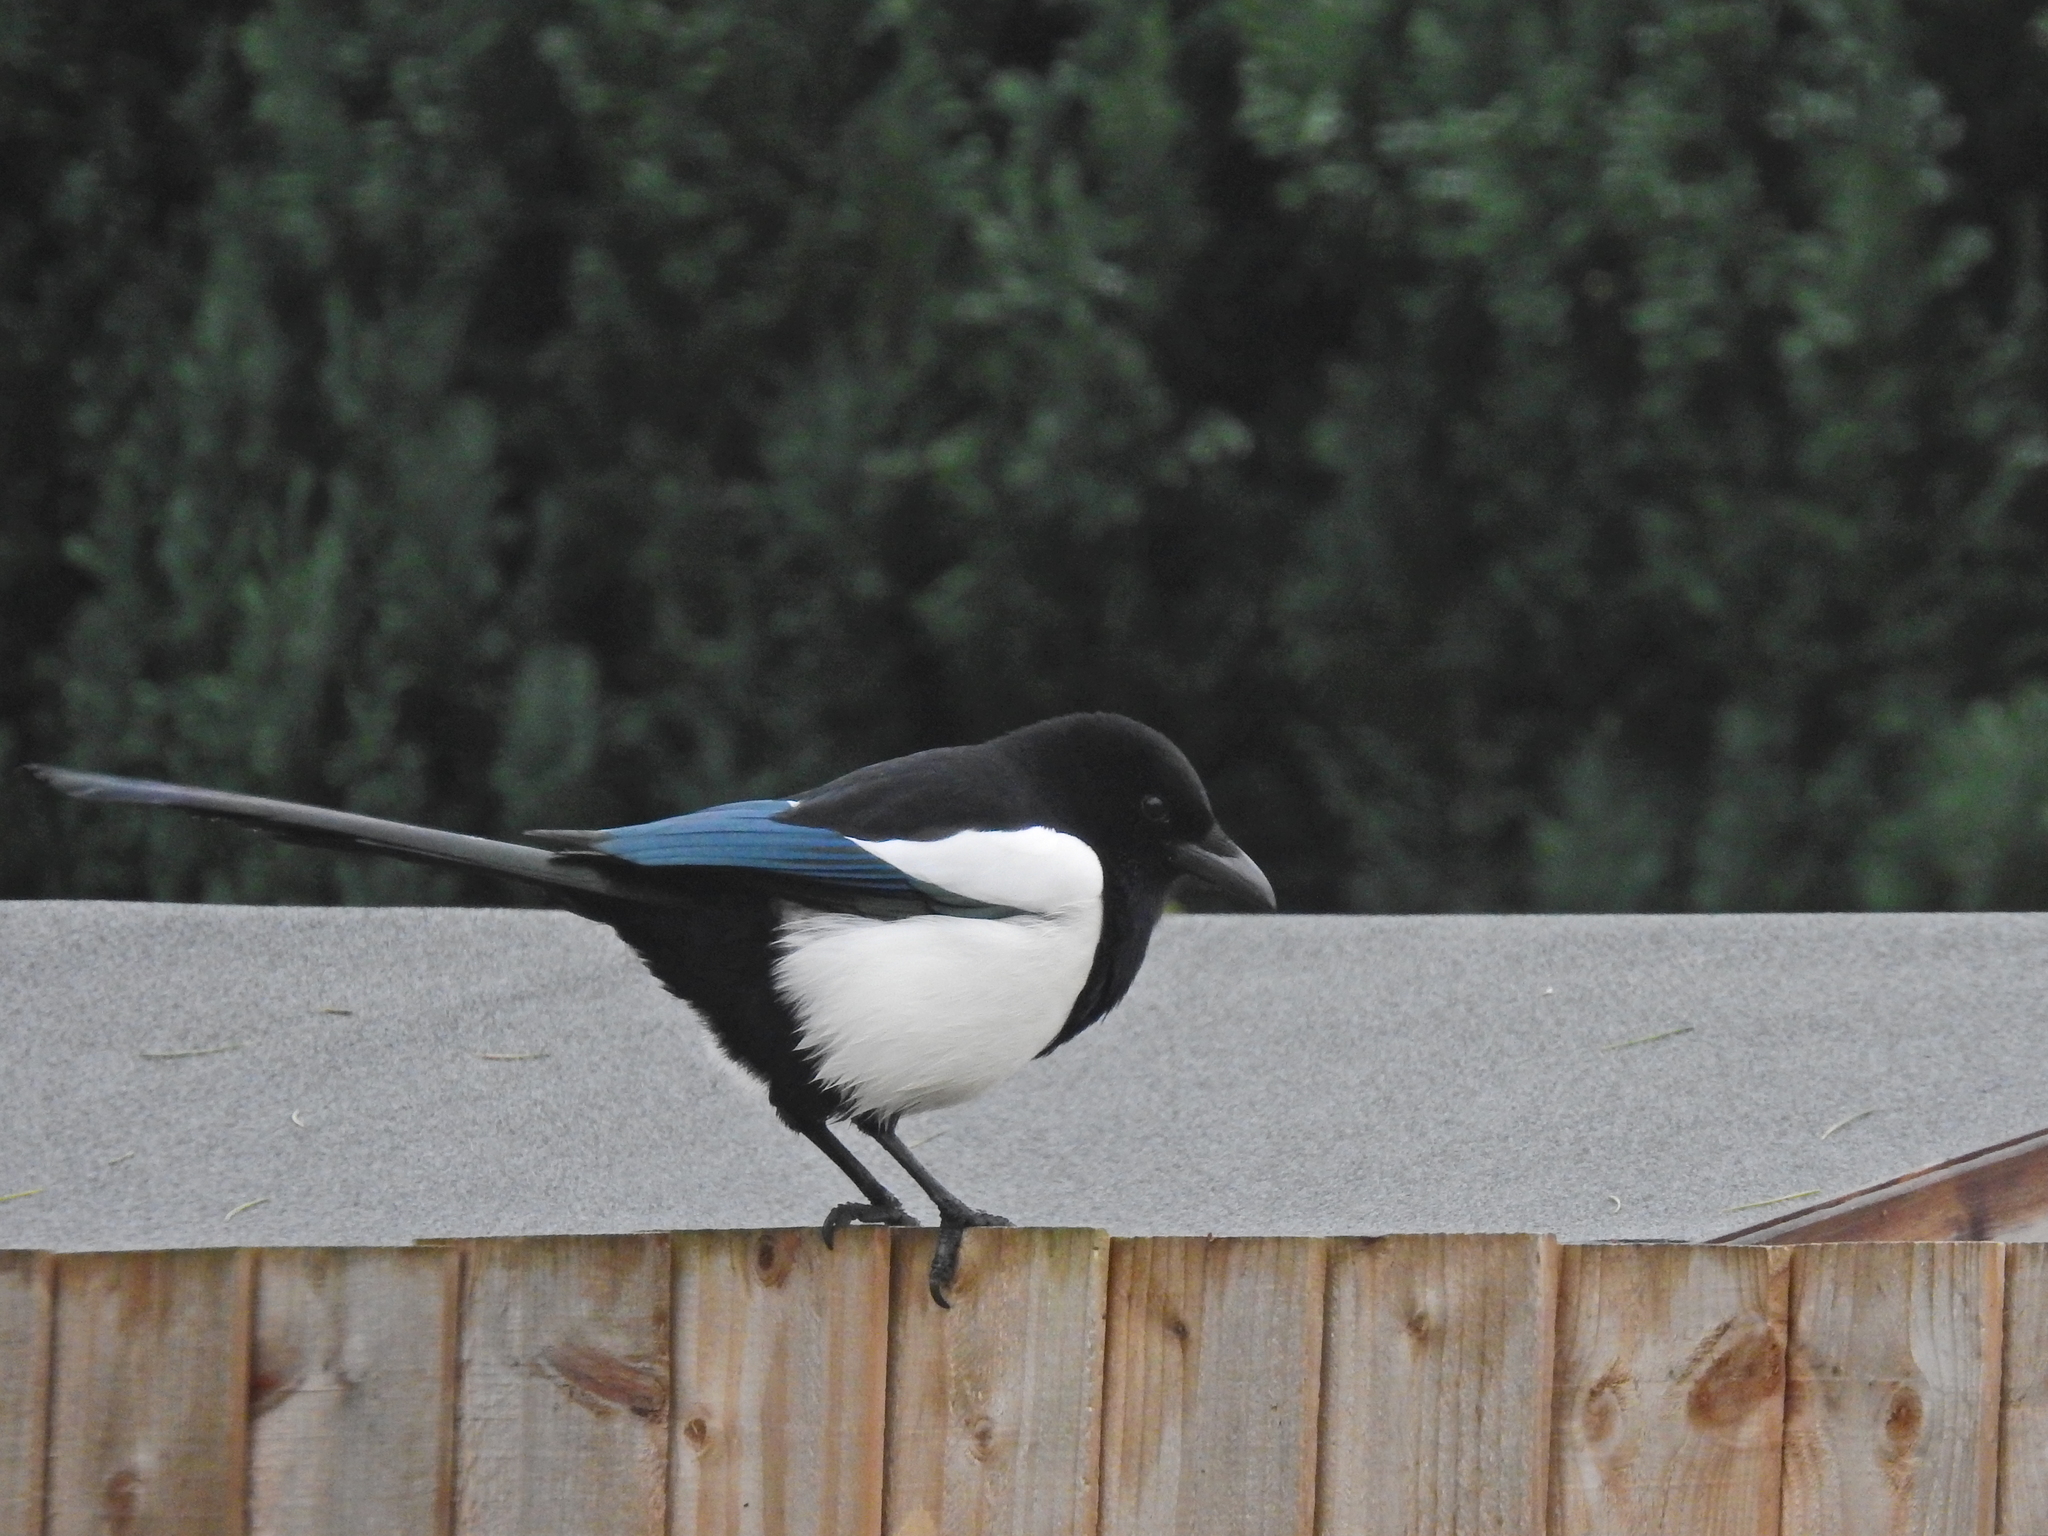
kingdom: Animalia
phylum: Chordata
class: Aves
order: Passeriformes
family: Corvidae
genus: Pica
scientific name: Pica pica
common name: Eurasian magpie
